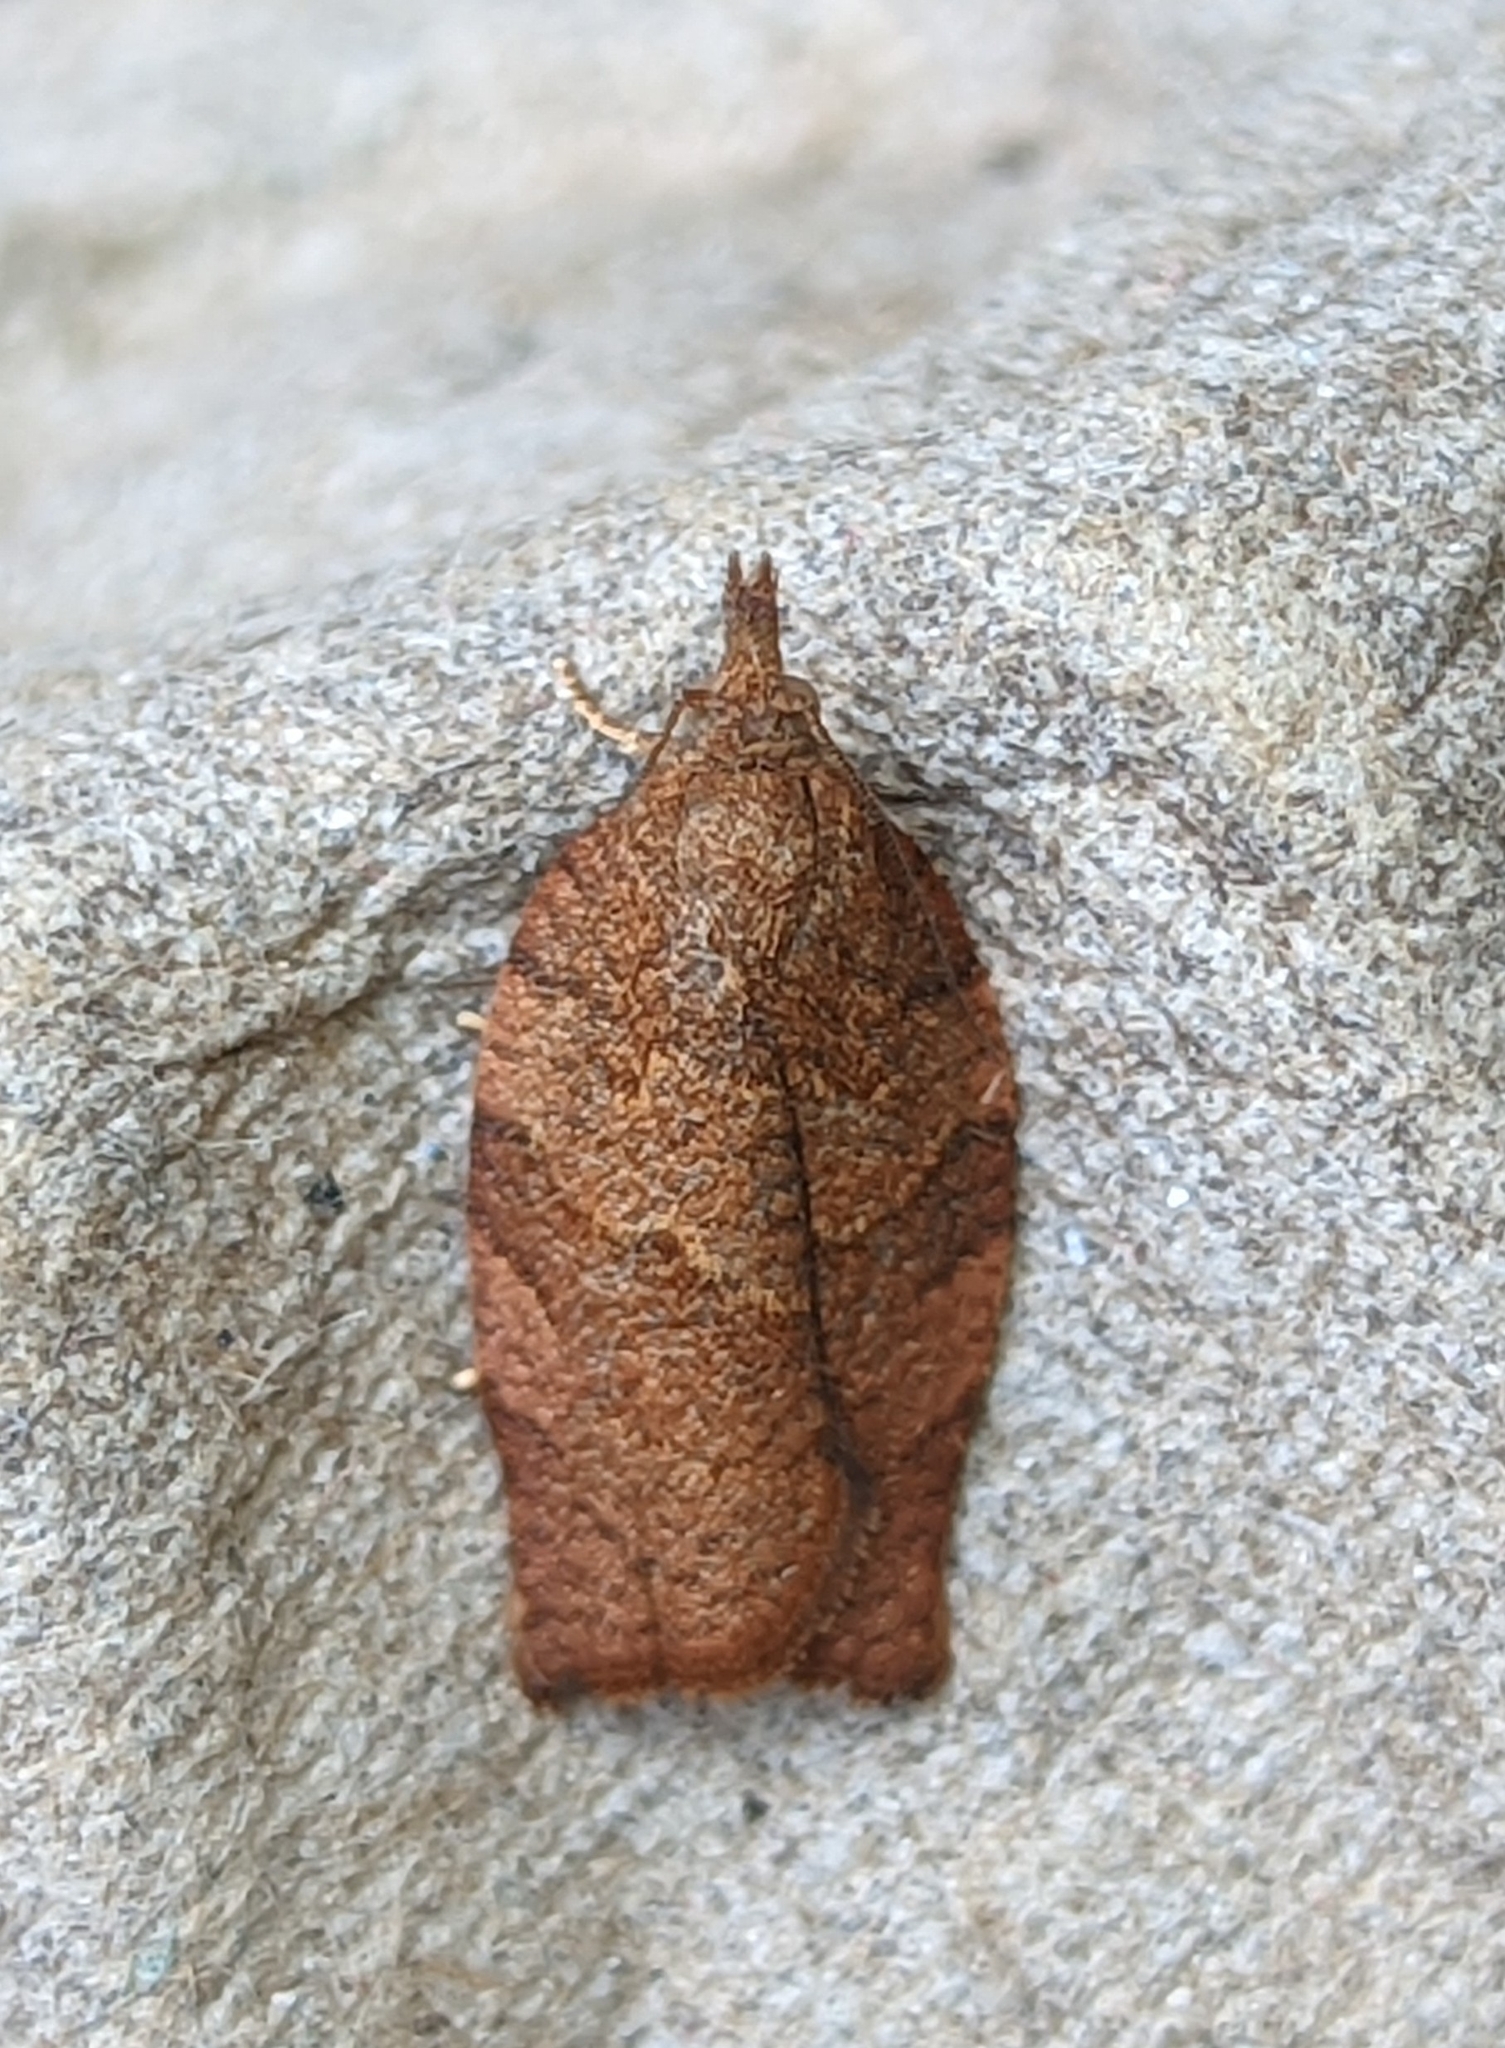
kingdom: Animalia
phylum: Arthropoda
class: Insecta
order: Lepidoptera
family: Tortricidae
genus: Pandemis
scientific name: Pandemis heparana
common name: Dark fruit-tree tortrix
